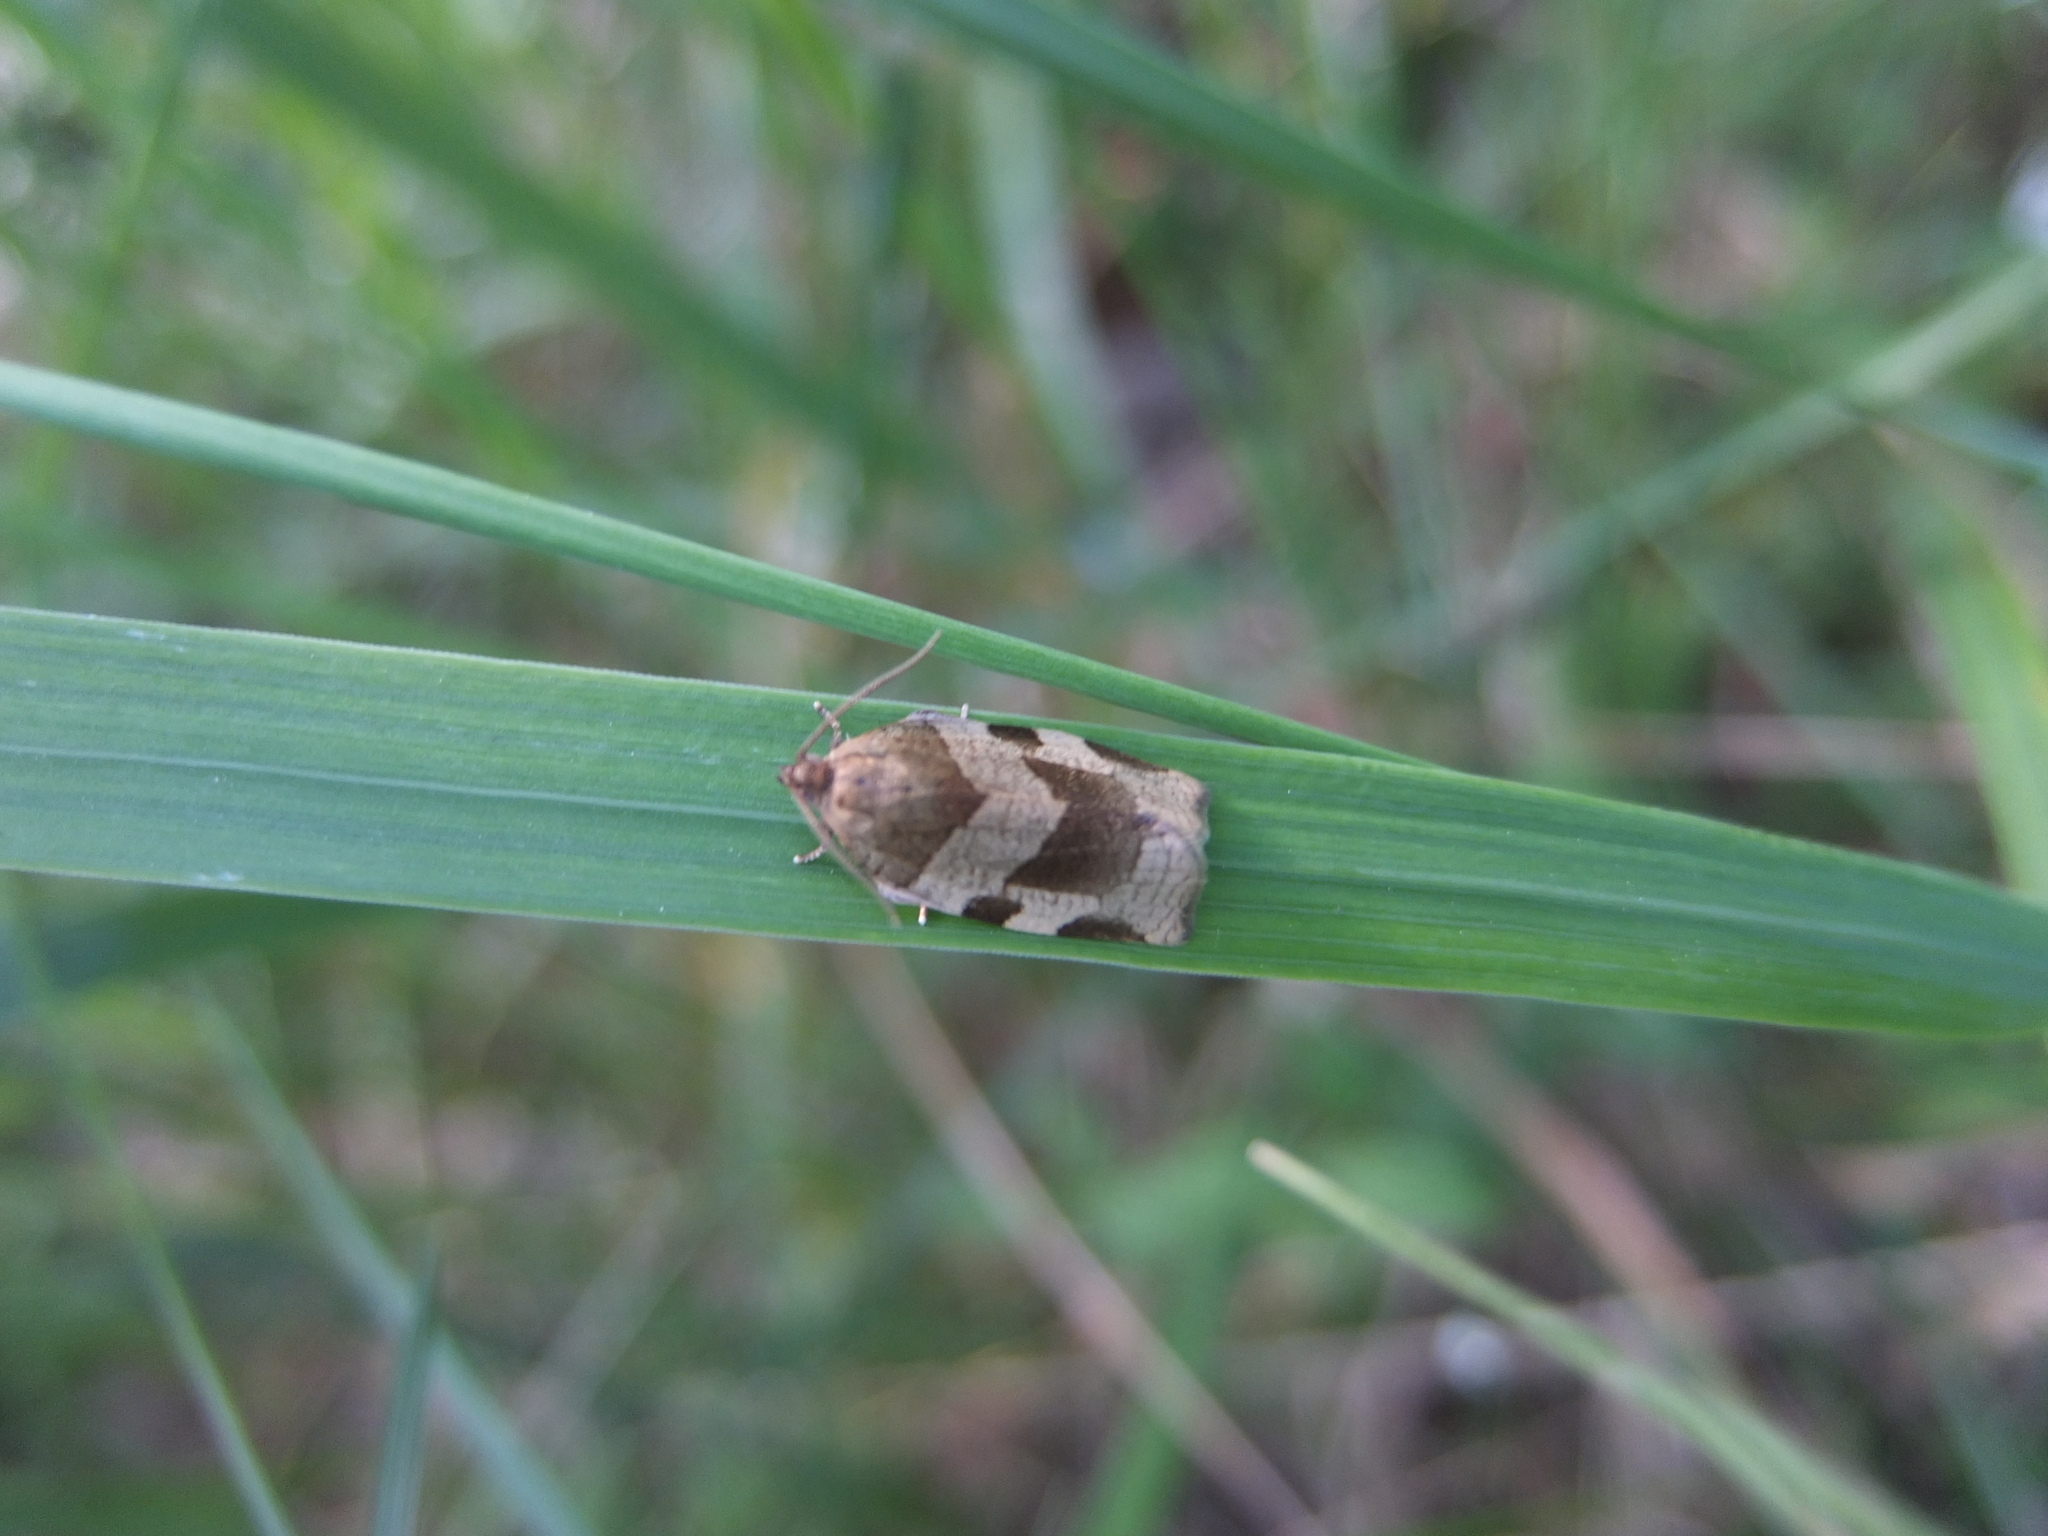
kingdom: Animalia
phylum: Arthropoda
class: Insecta
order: Lepidoptera
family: Tortricidae
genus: Choristoneura
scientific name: Choristoneura hebenstreitella
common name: Great twist
